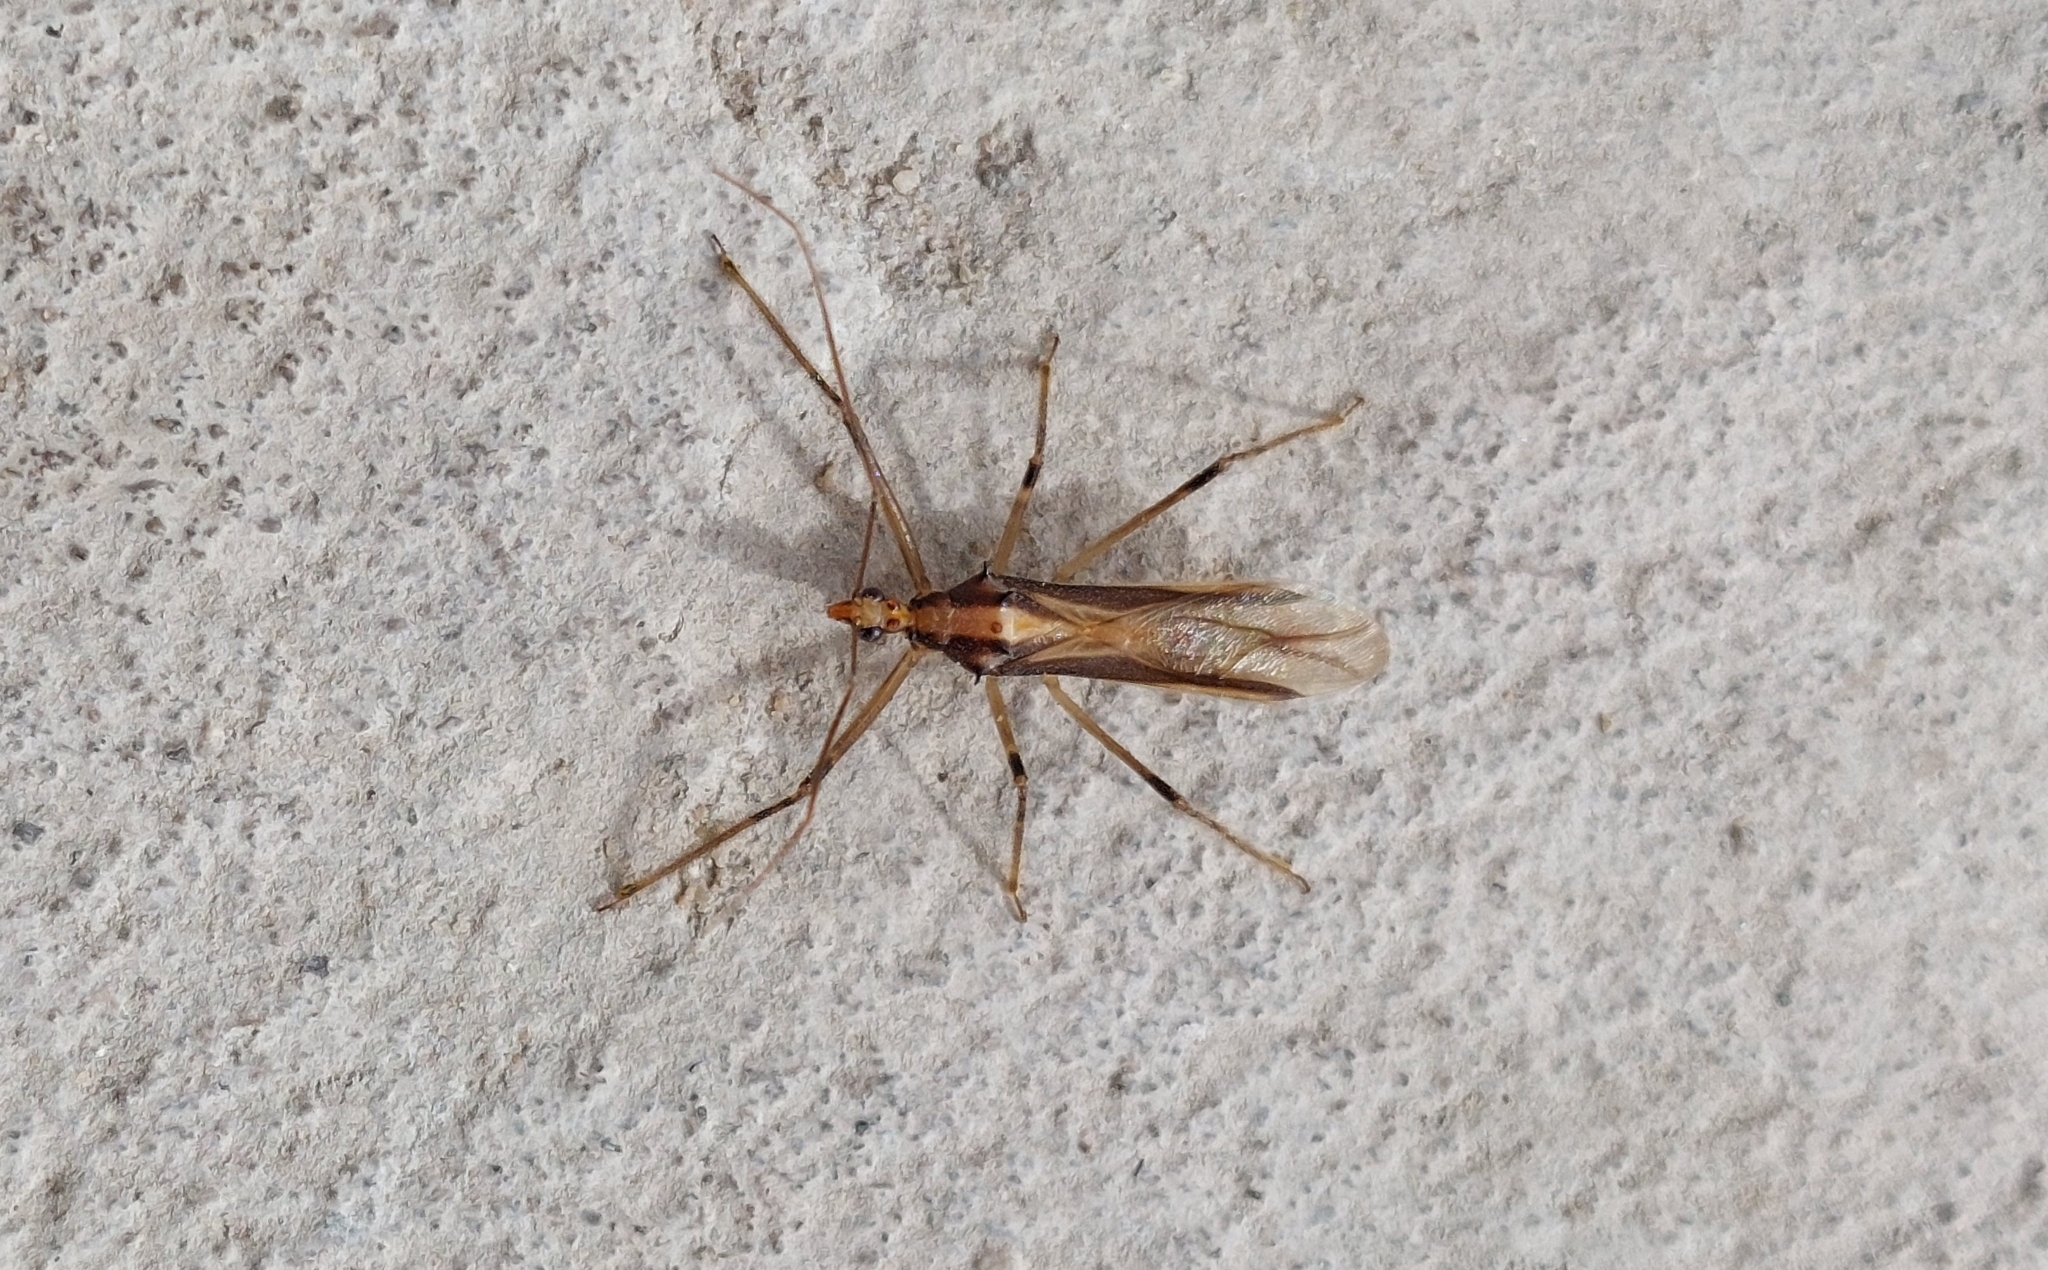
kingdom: Animalia
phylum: Arthropoda
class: Insecta
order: Hemiptera
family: Reduviidae
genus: Repipta
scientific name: Repipta argentinensis
